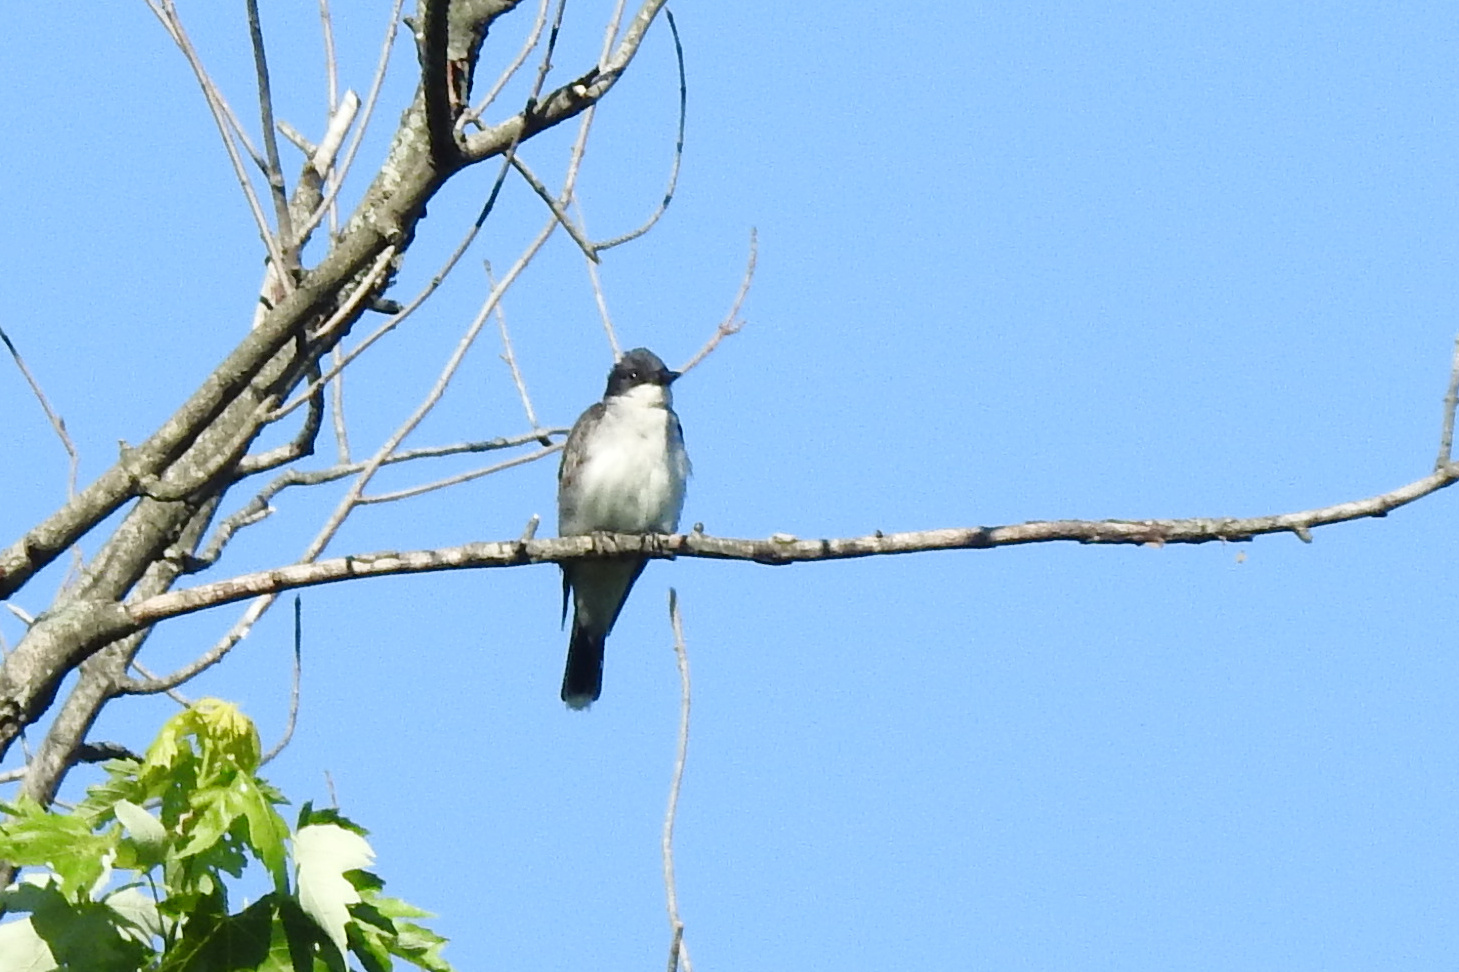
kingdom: Animalia
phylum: Chordata
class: Aves
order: Passeriformes
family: Tyrannidae
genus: Tyrannus
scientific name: Tyrannus tyrannus
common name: Eastern kingbird
